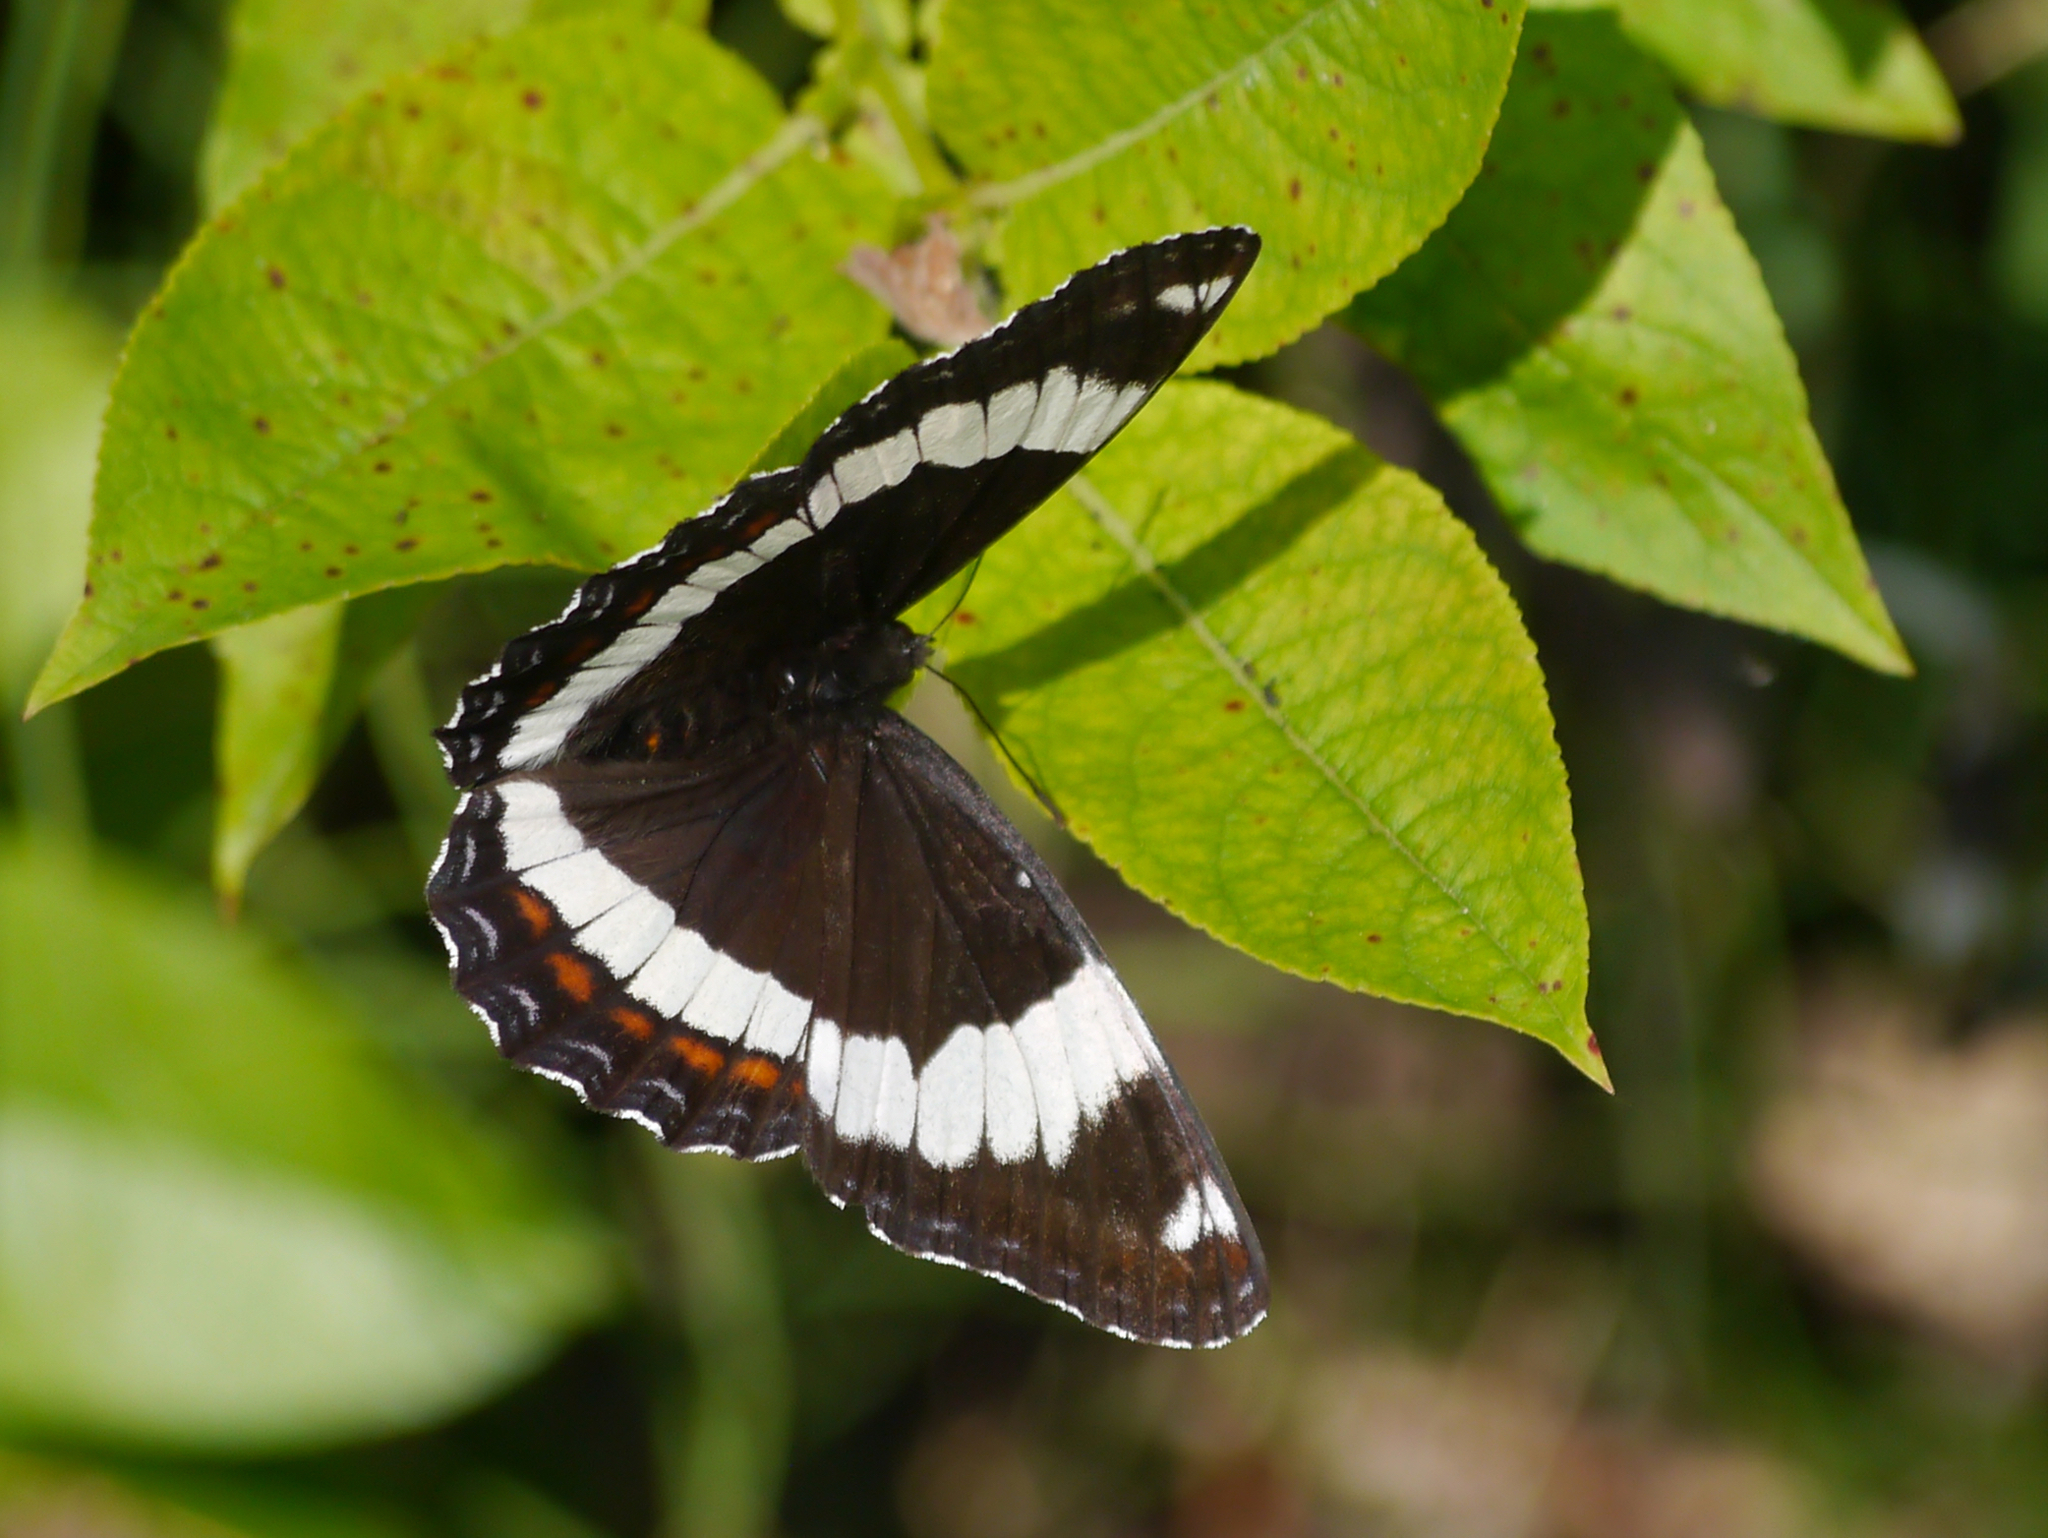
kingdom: Animalia
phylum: Arthropoda
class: Insecta
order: Lepidoptera
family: Nymphalidae
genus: Limenitis
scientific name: Limenitis arthemis
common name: Red-spotted admiral
